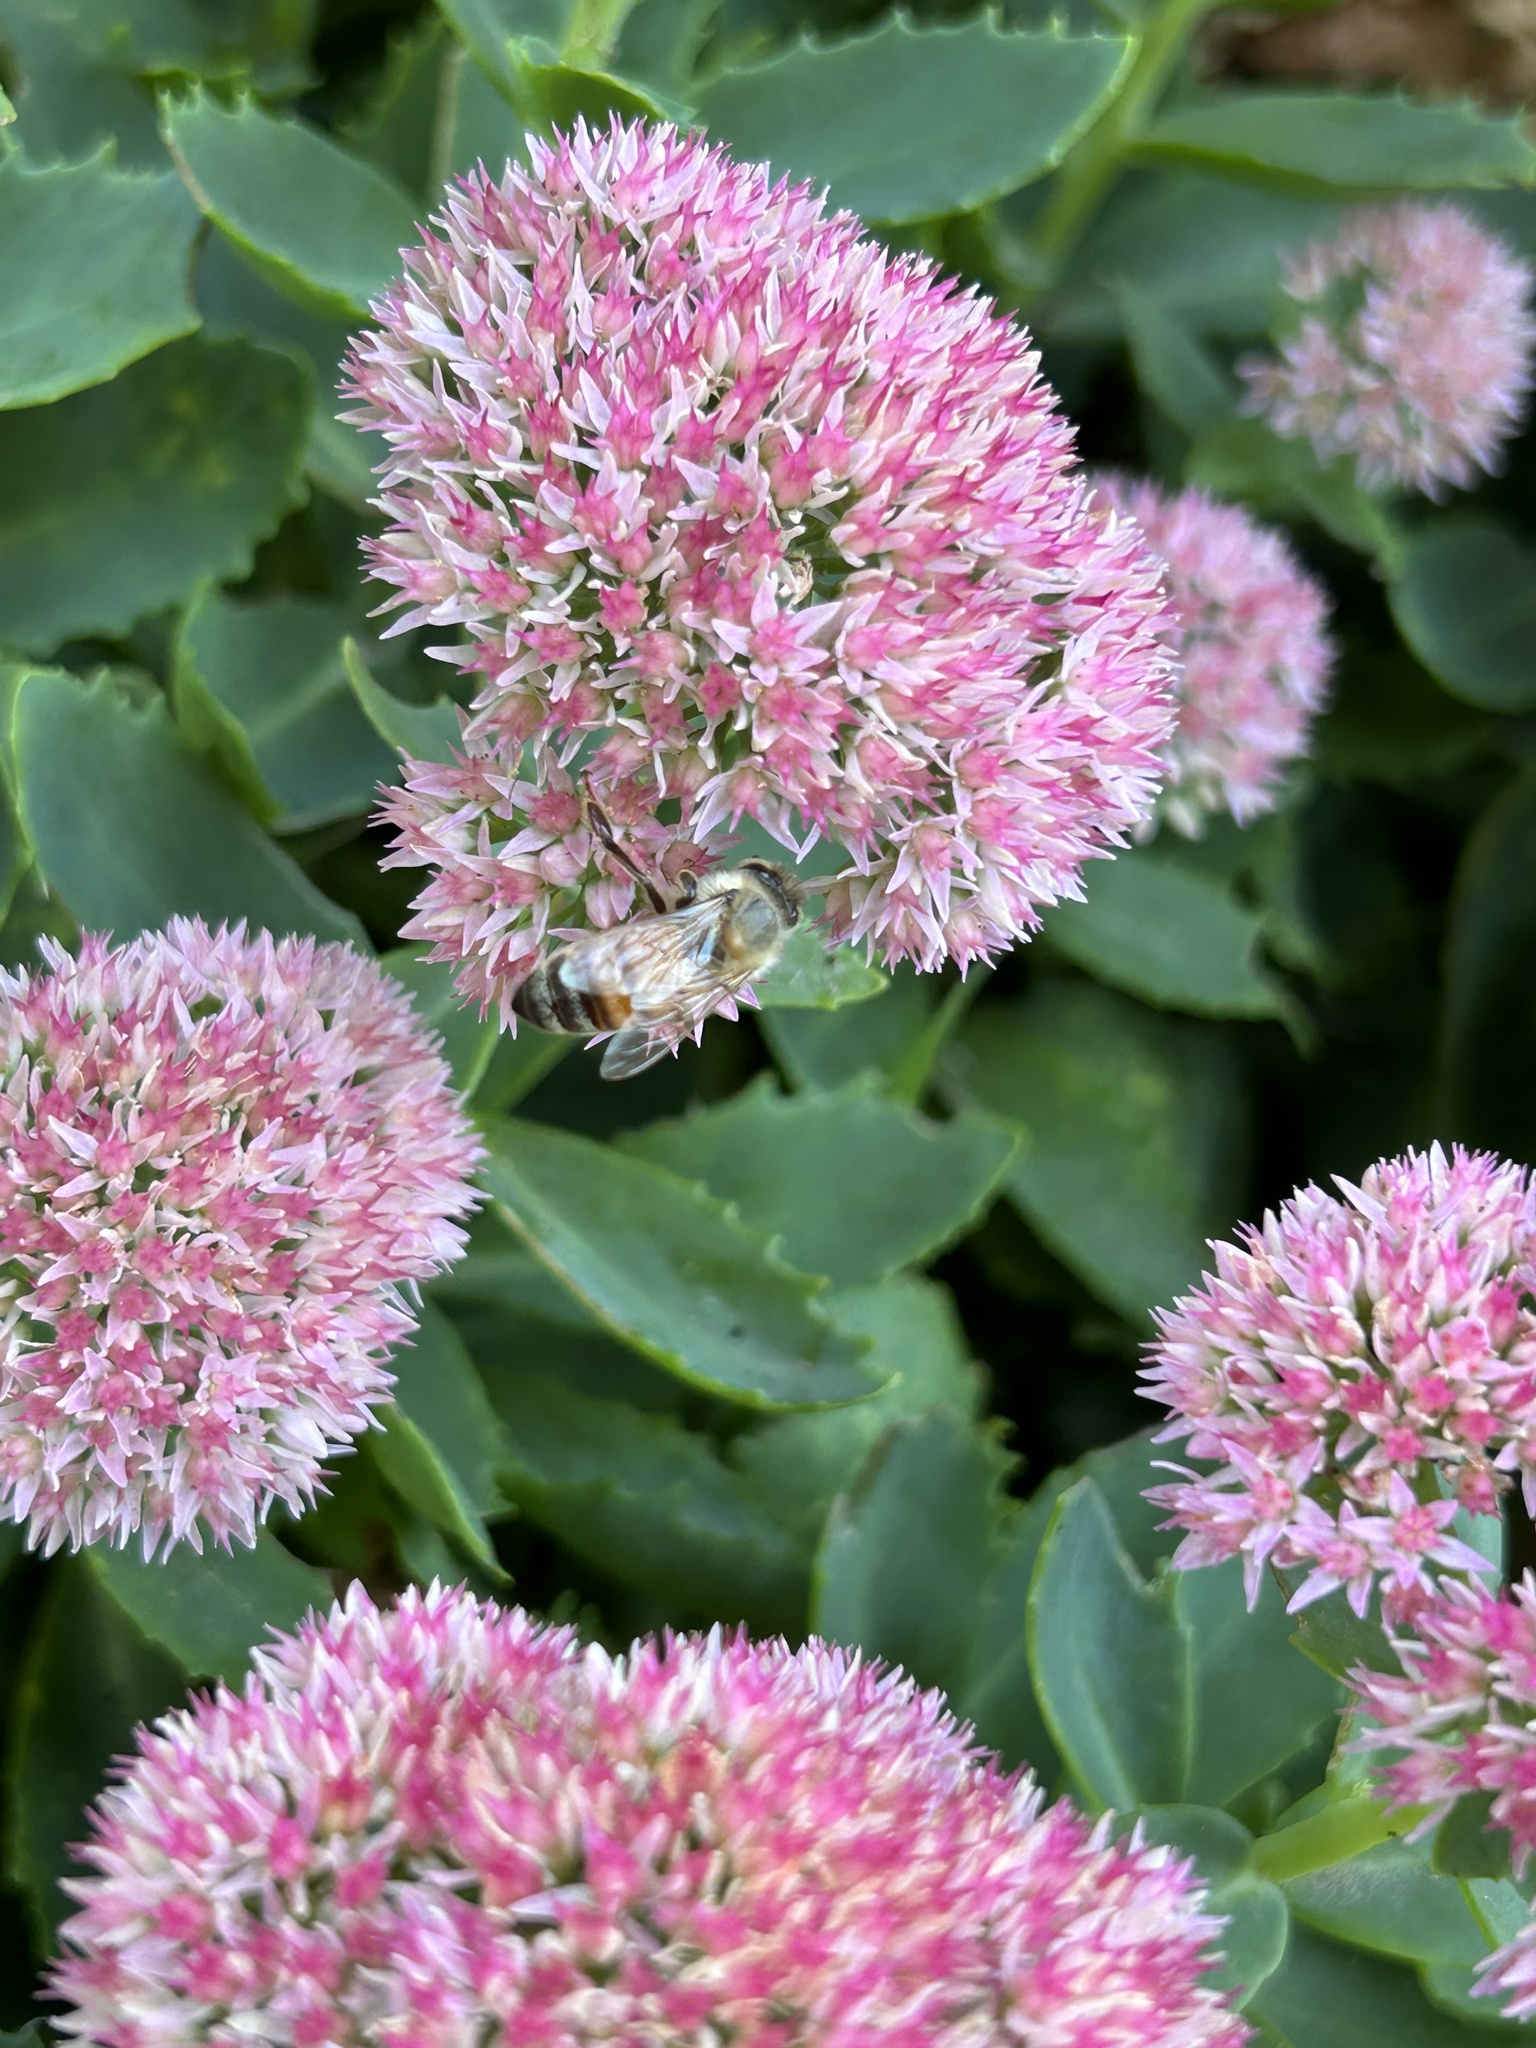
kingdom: Animalia
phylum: Arthropoda
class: Insecta
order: Hymenoptera
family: Apidae
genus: Apis
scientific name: Apis mellifera
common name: Honey bee
